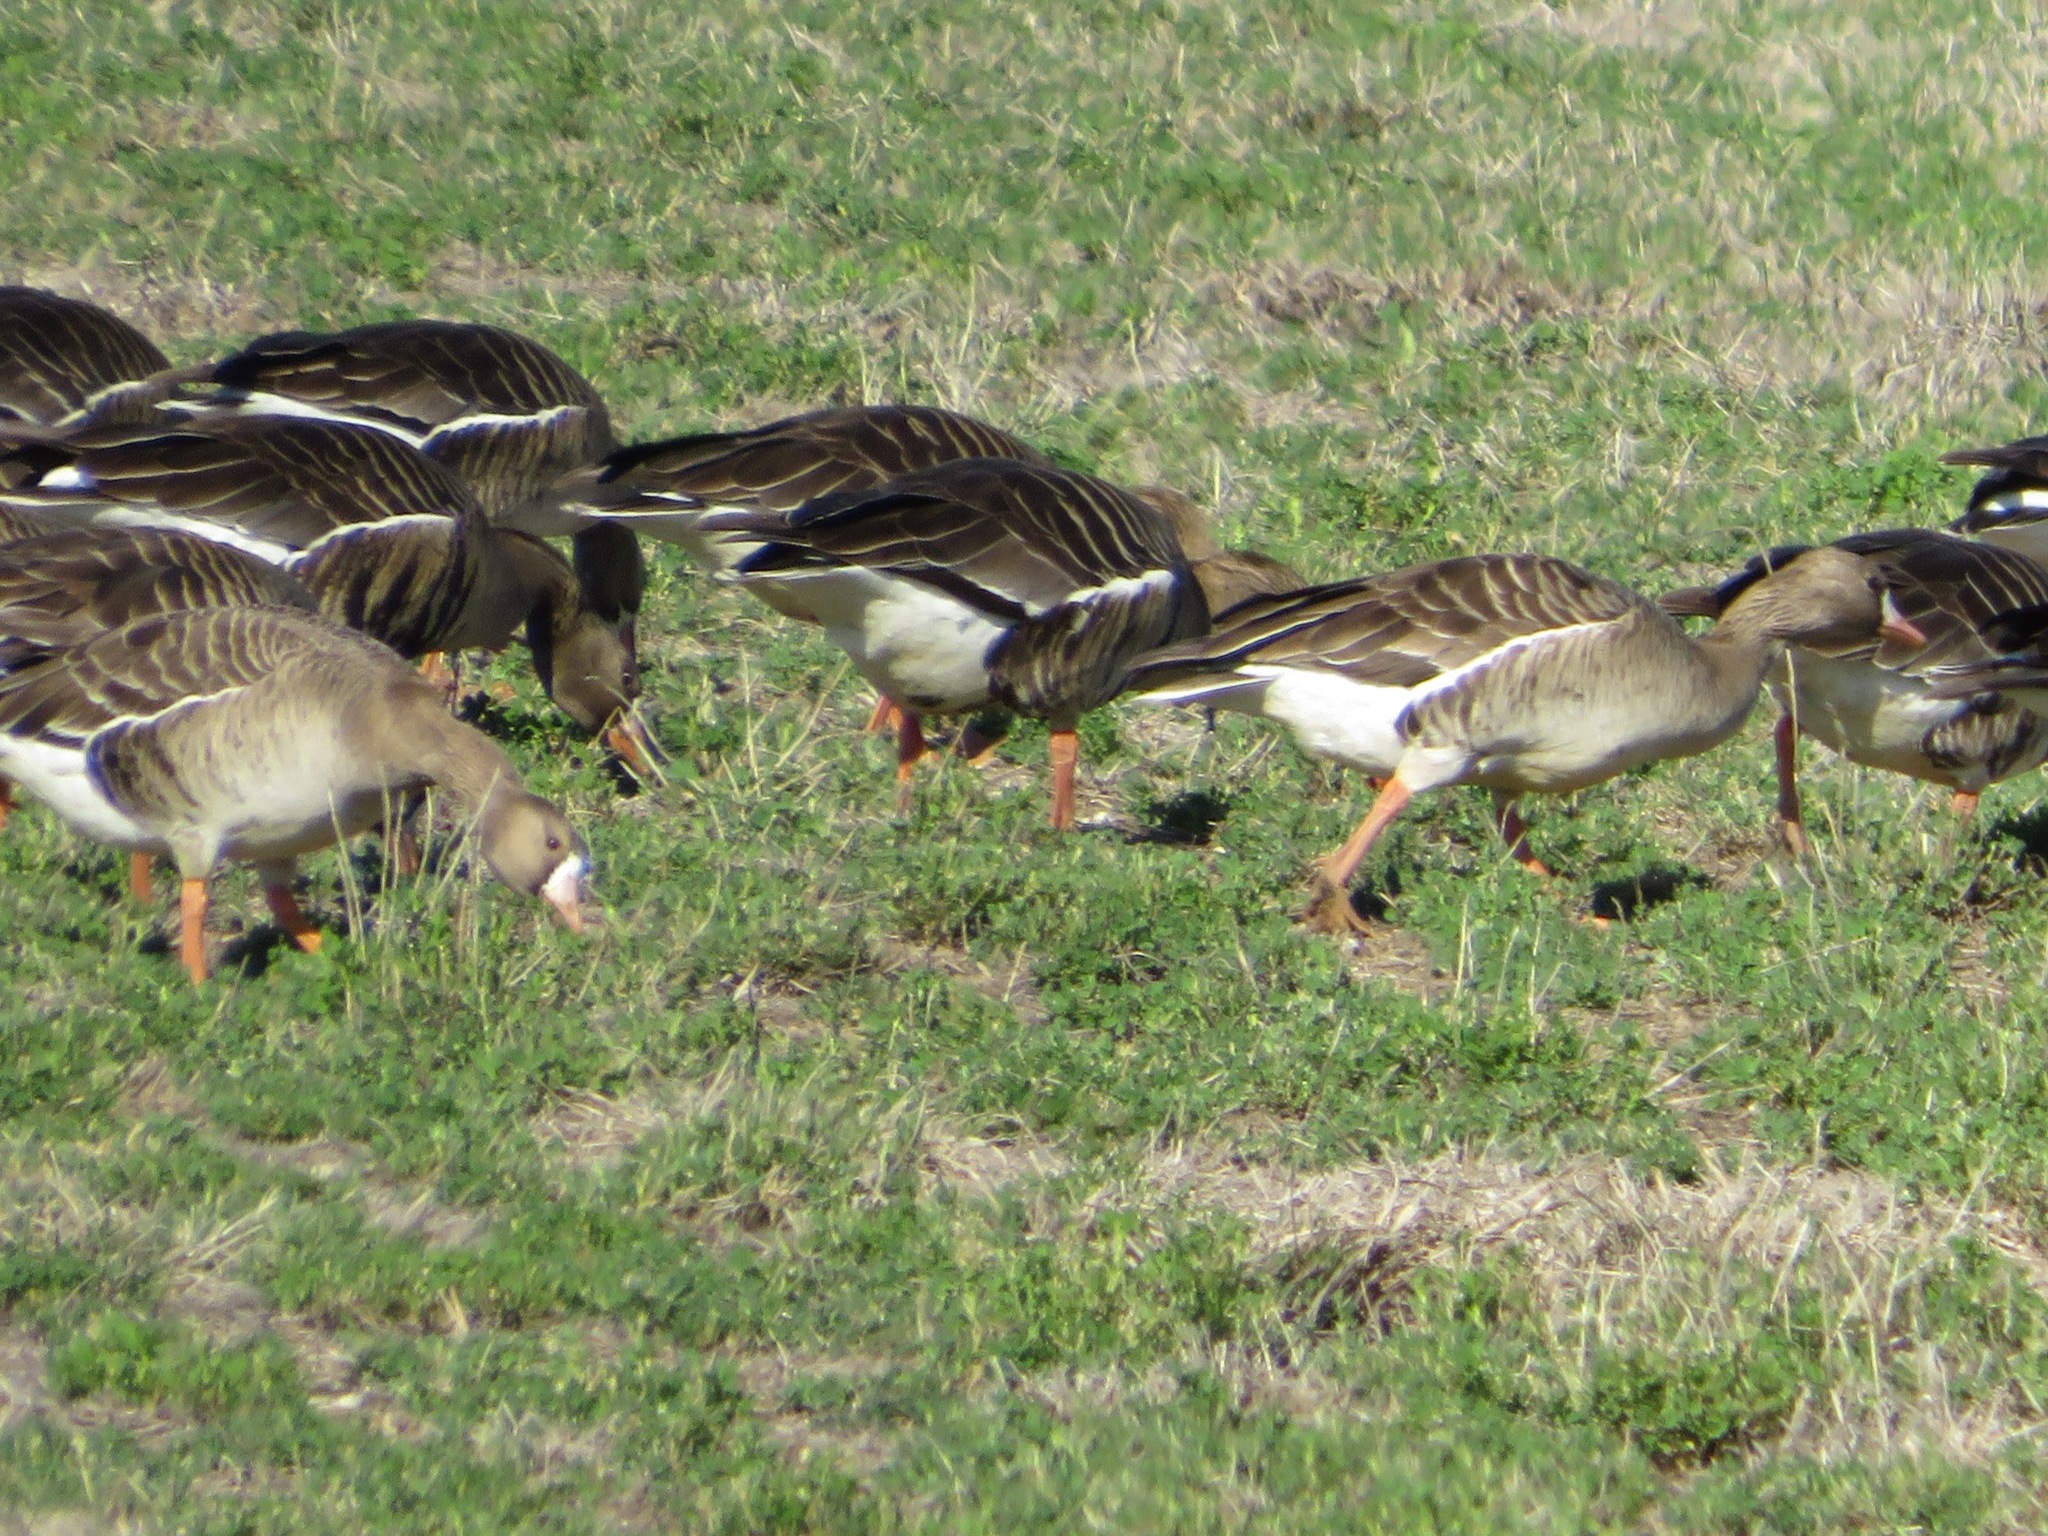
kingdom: Animalia
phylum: Chordata
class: Aves
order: Anseriformes
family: Anatidae
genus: Anser
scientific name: Anser albifrons
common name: Greater white-fronted goose
